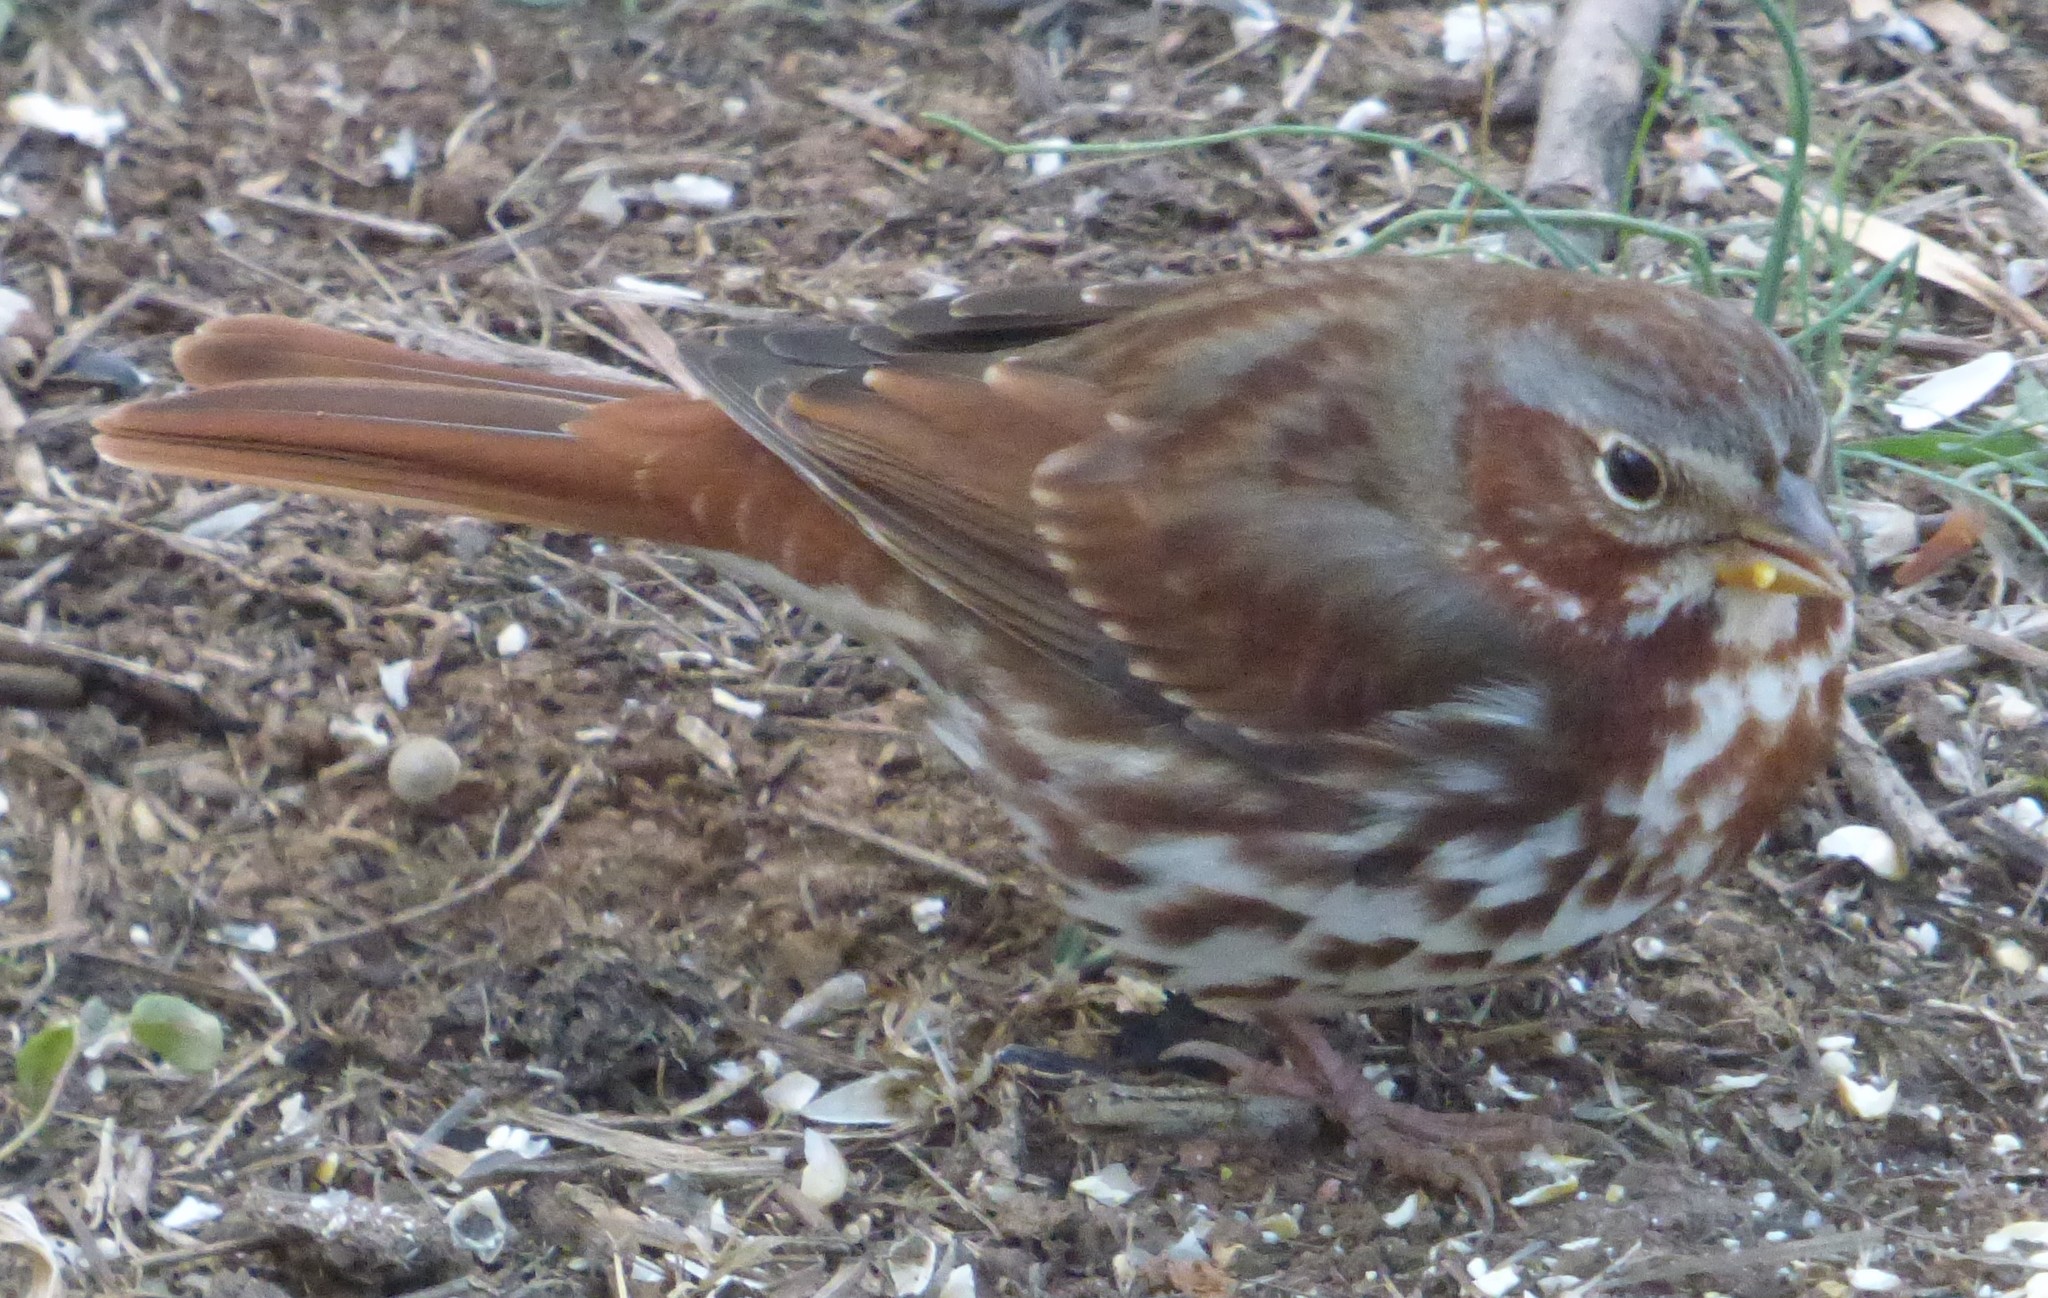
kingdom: Animalia
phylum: Chordata
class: Aves
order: Passeriformes
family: Passerellidae
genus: Passerella
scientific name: Passerella iliaca
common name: Fox sparrow
